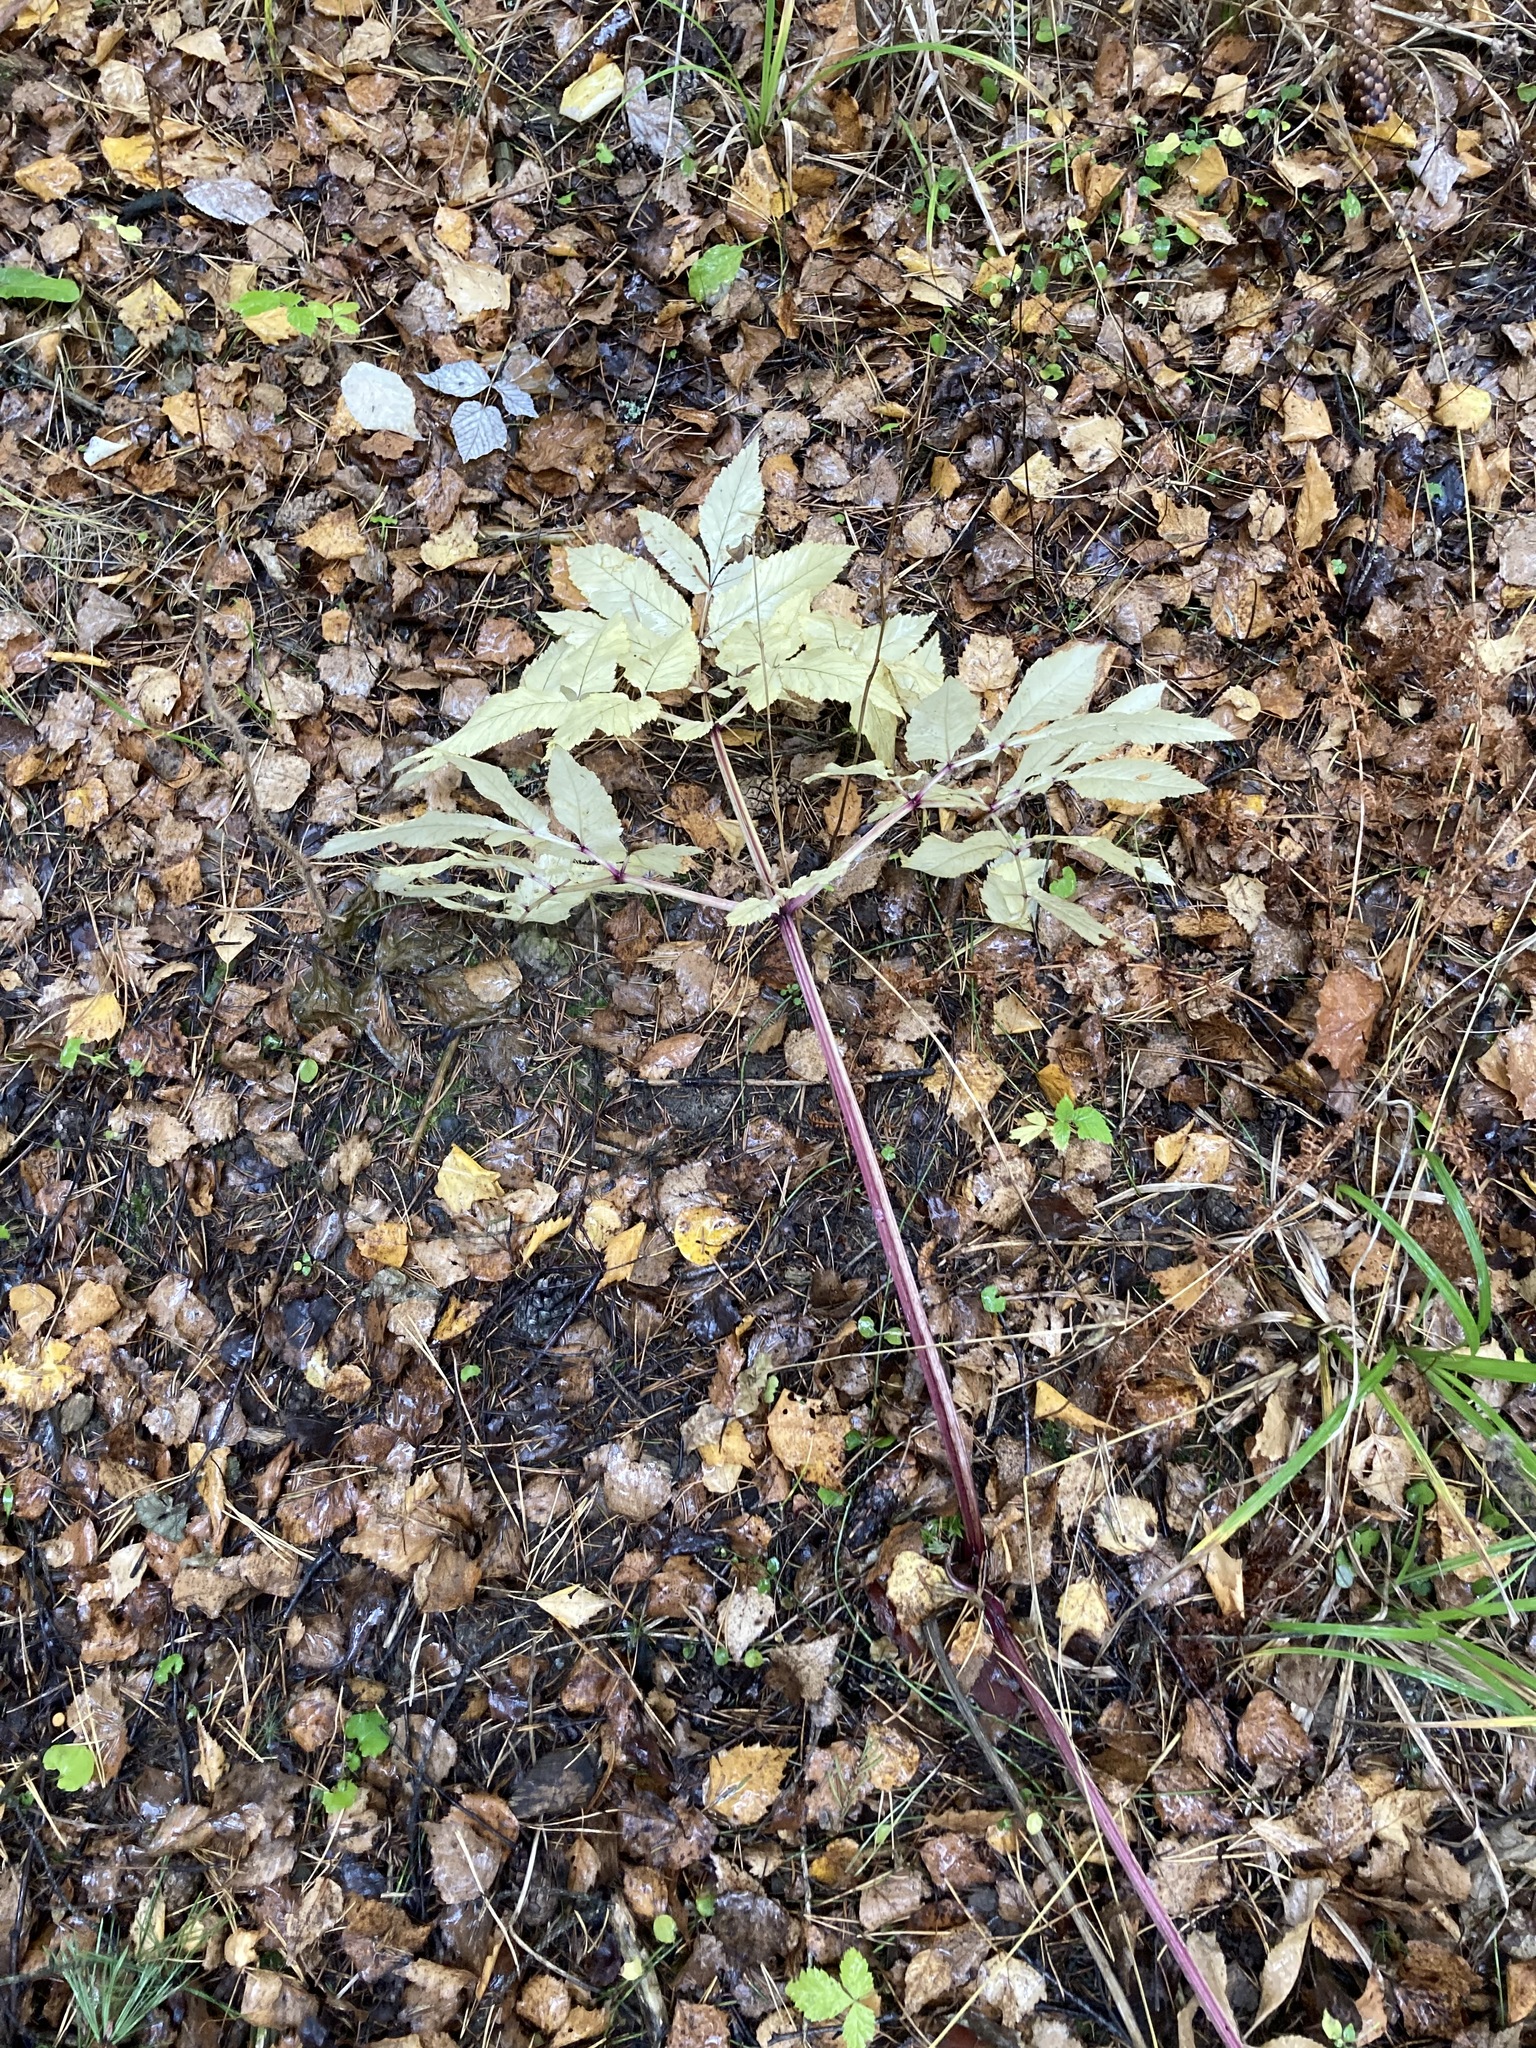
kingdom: Plantae
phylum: Tracheophyta
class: Magnoliopsida
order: Apiales
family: Apiaceae
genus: Aegopodium
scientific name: Aegopodium podagraria
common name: Ground-elder
